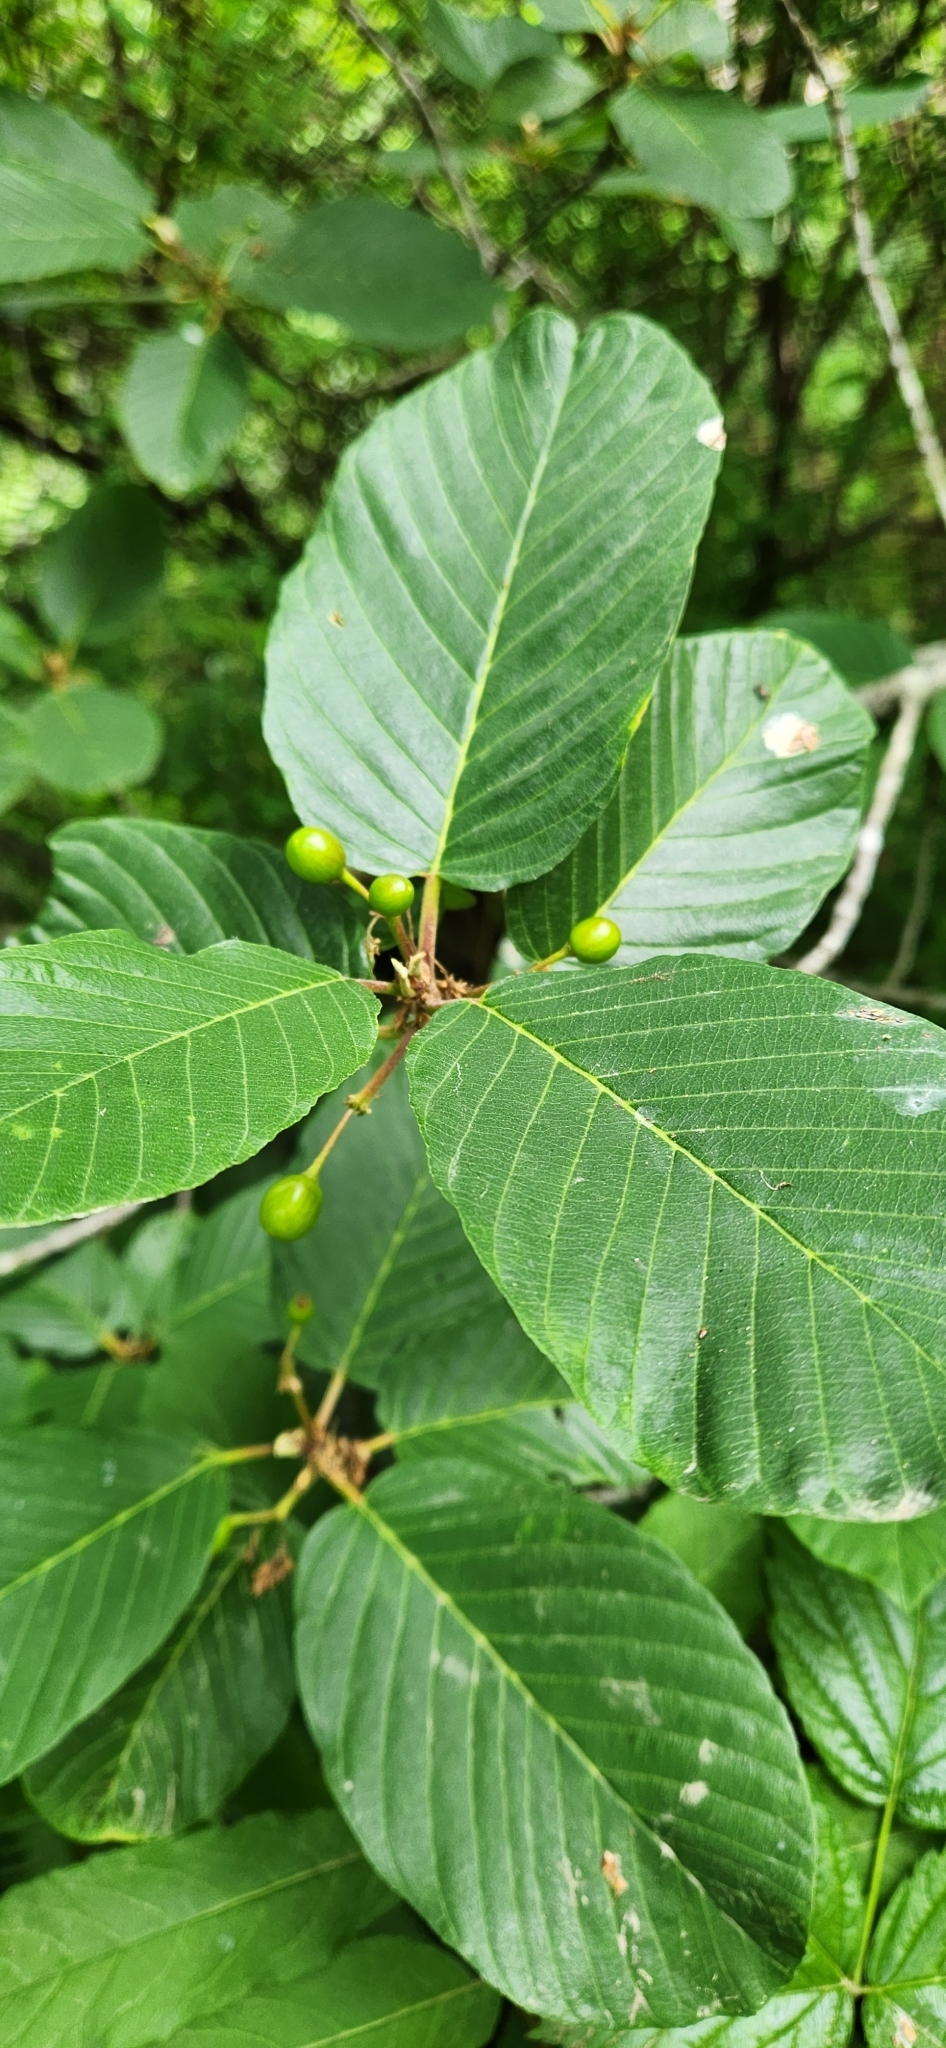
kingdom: Plantae
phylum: Tracheophyta
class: Magnoliopsida
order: Rosales
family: Rhamnaceae
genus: Frangula
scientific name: Frangula purshiana
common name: Cascara buckthorn
